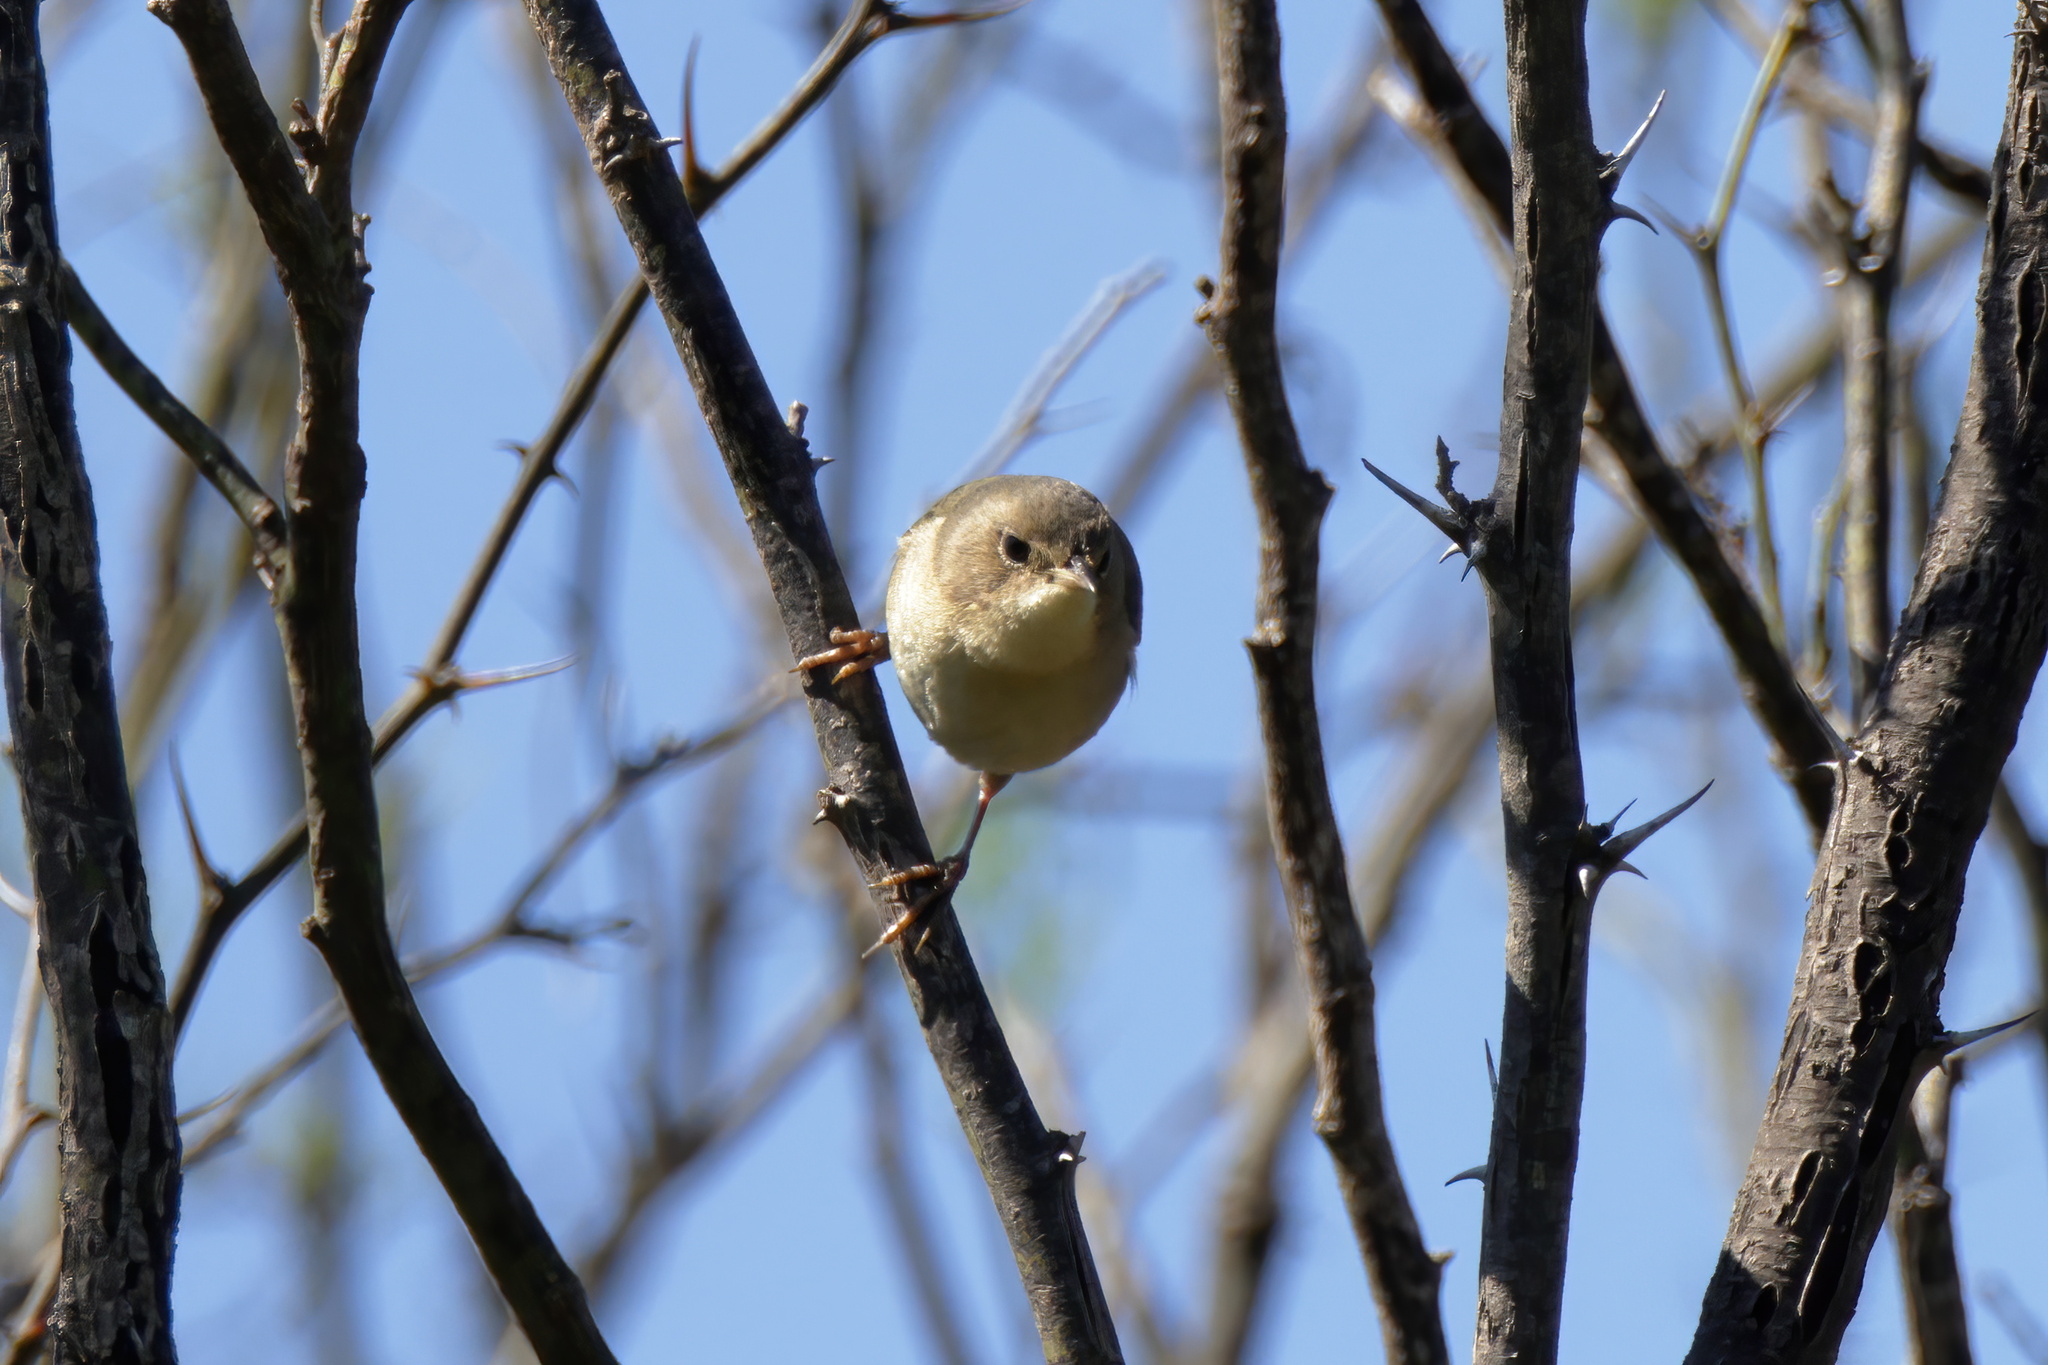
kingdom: Animalia
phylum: Chordata
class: Aves
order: Passeriformes
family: Parulidae
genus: Geothlypis
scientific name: Geothlypis trichas
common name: Common yellowthroat
